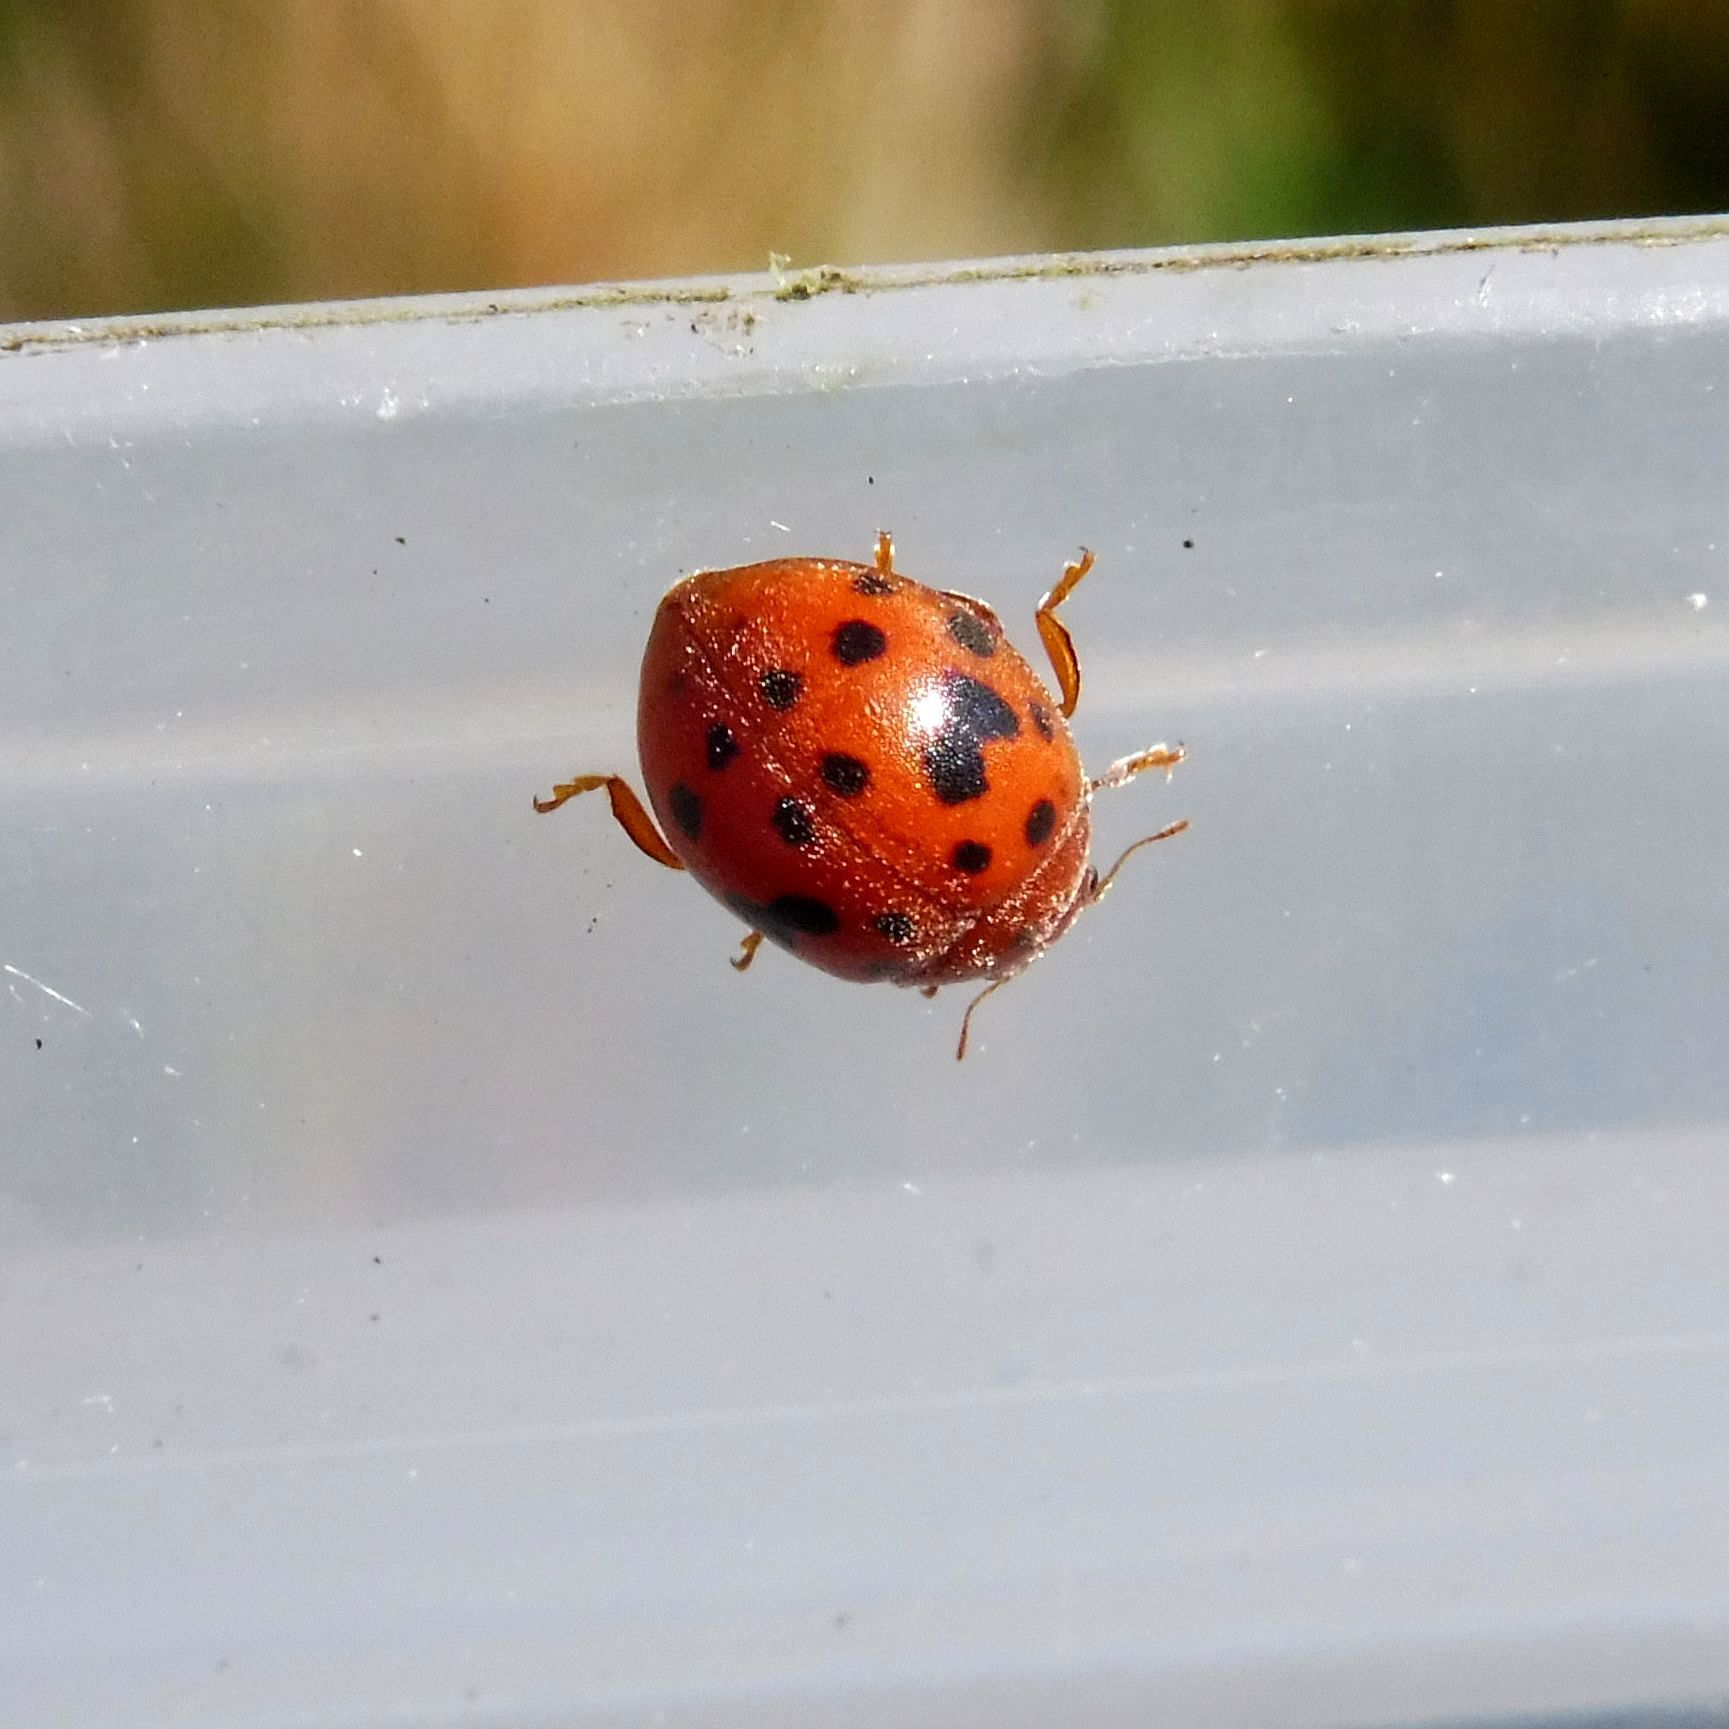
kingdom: Animalia
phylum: Arthropoda
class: Insecta
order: Coleoptera
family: Coccinellidae
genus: Subcoccinella
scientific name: Subcoccinella vigintiquatuorpunctata
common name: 24-spot ladybird
